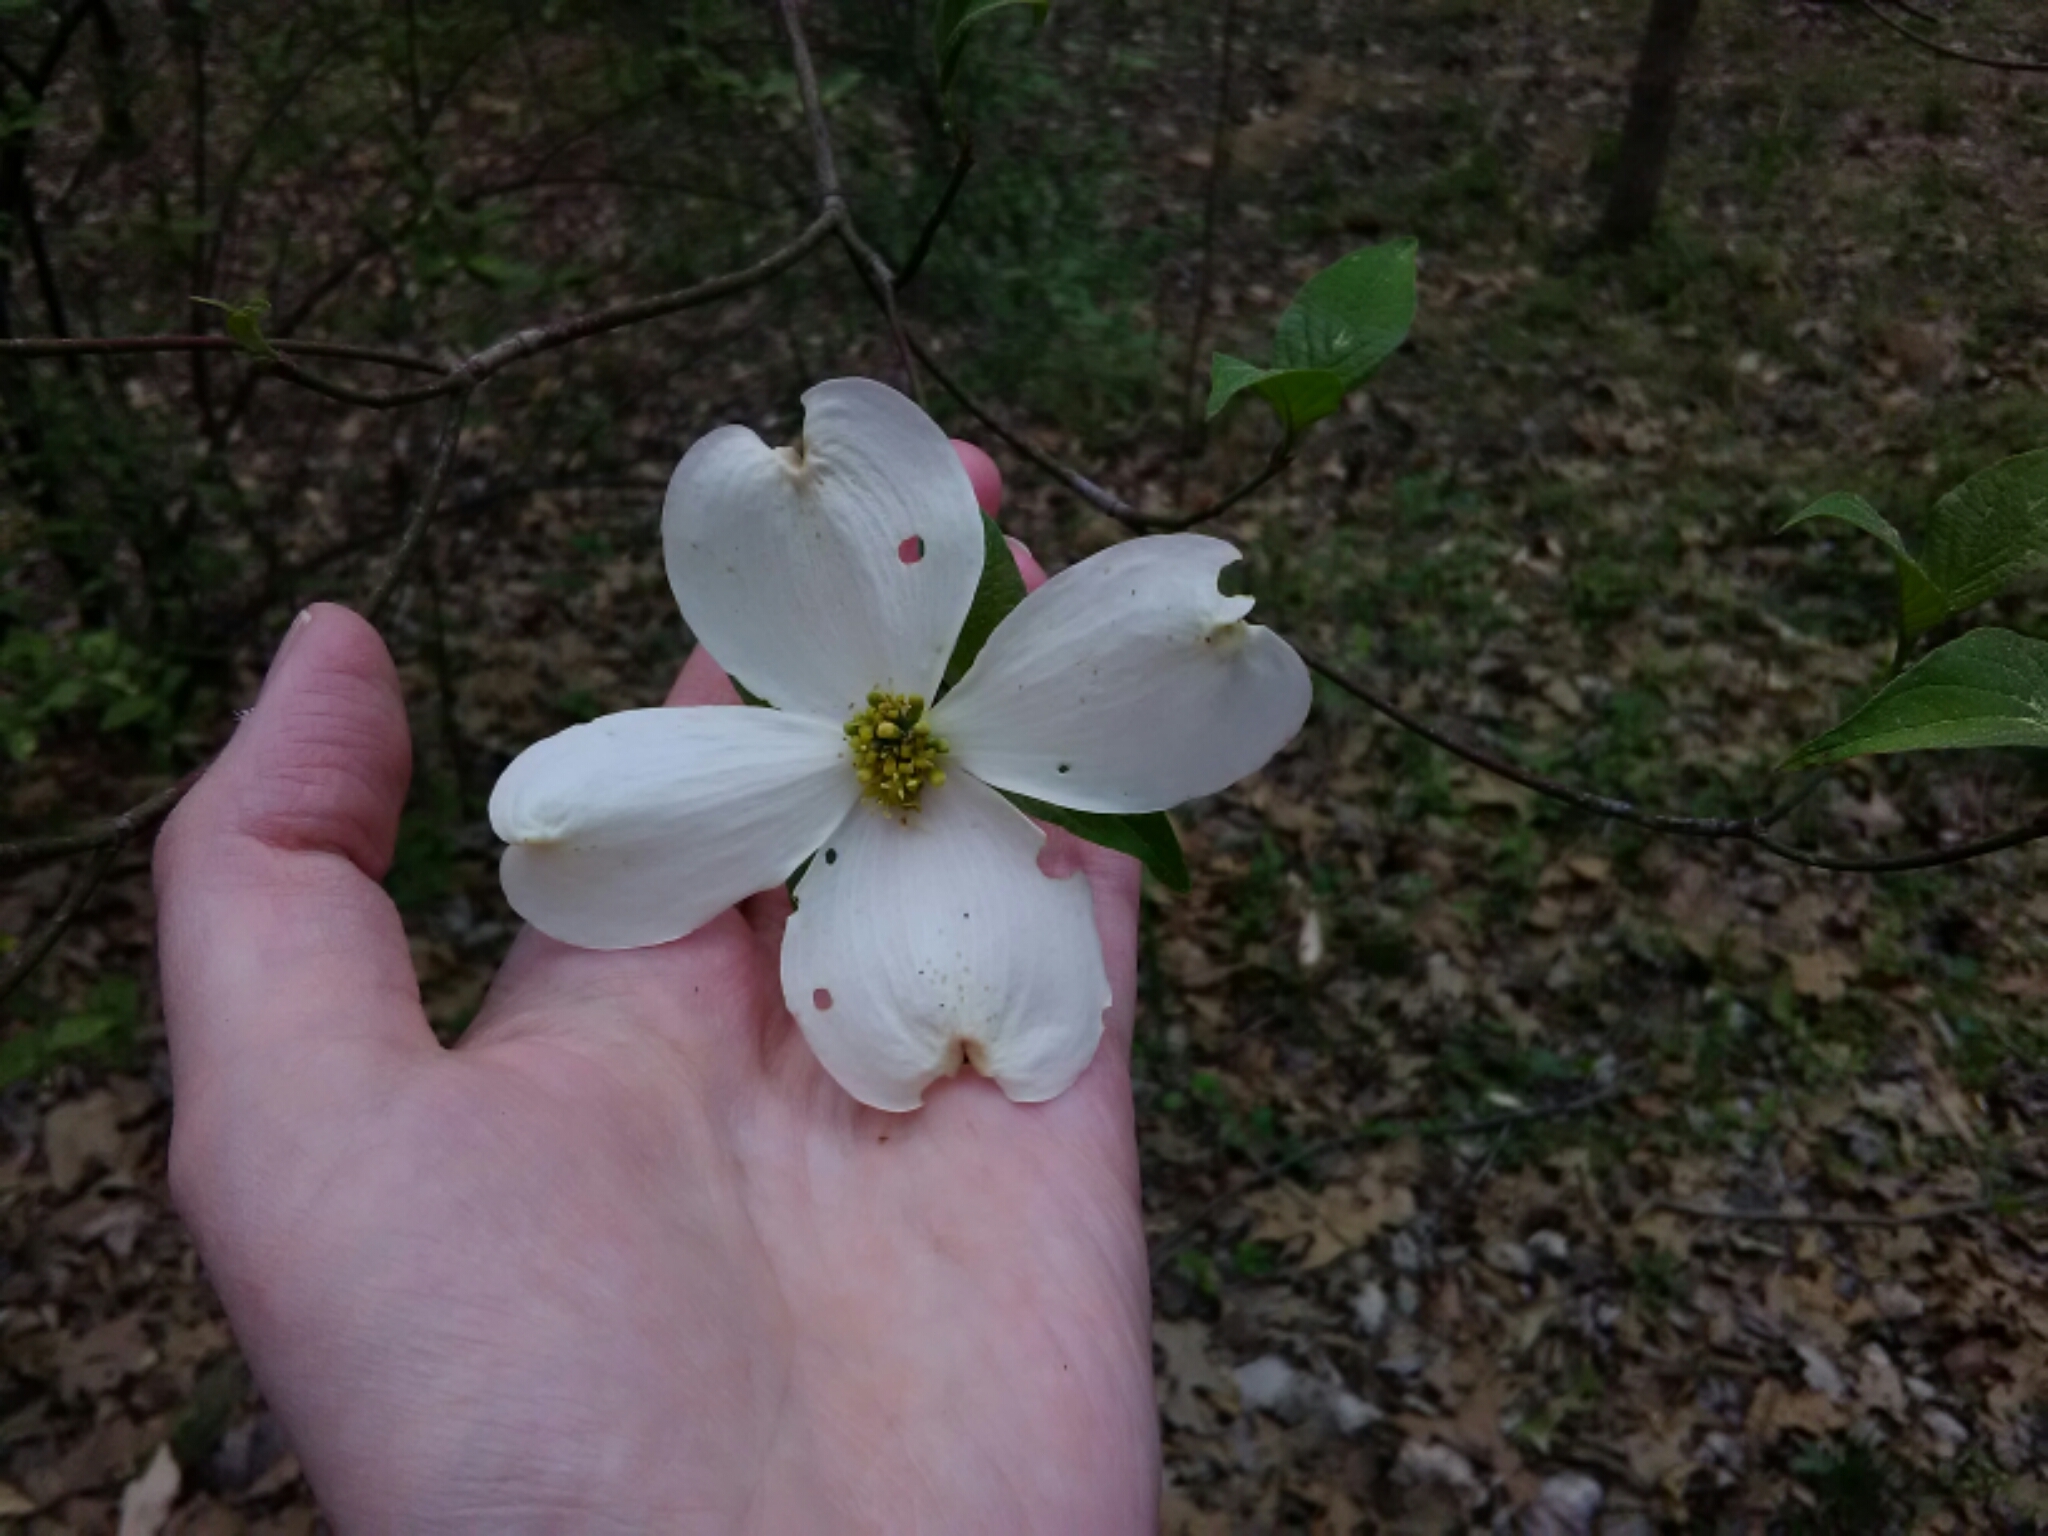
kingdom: Plantae
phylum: Tracheophyta
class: Magnoliopsida
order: Cornales
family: Cornaceae
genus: Cornus
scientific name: Cornus florida
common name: Flowering dogwood
